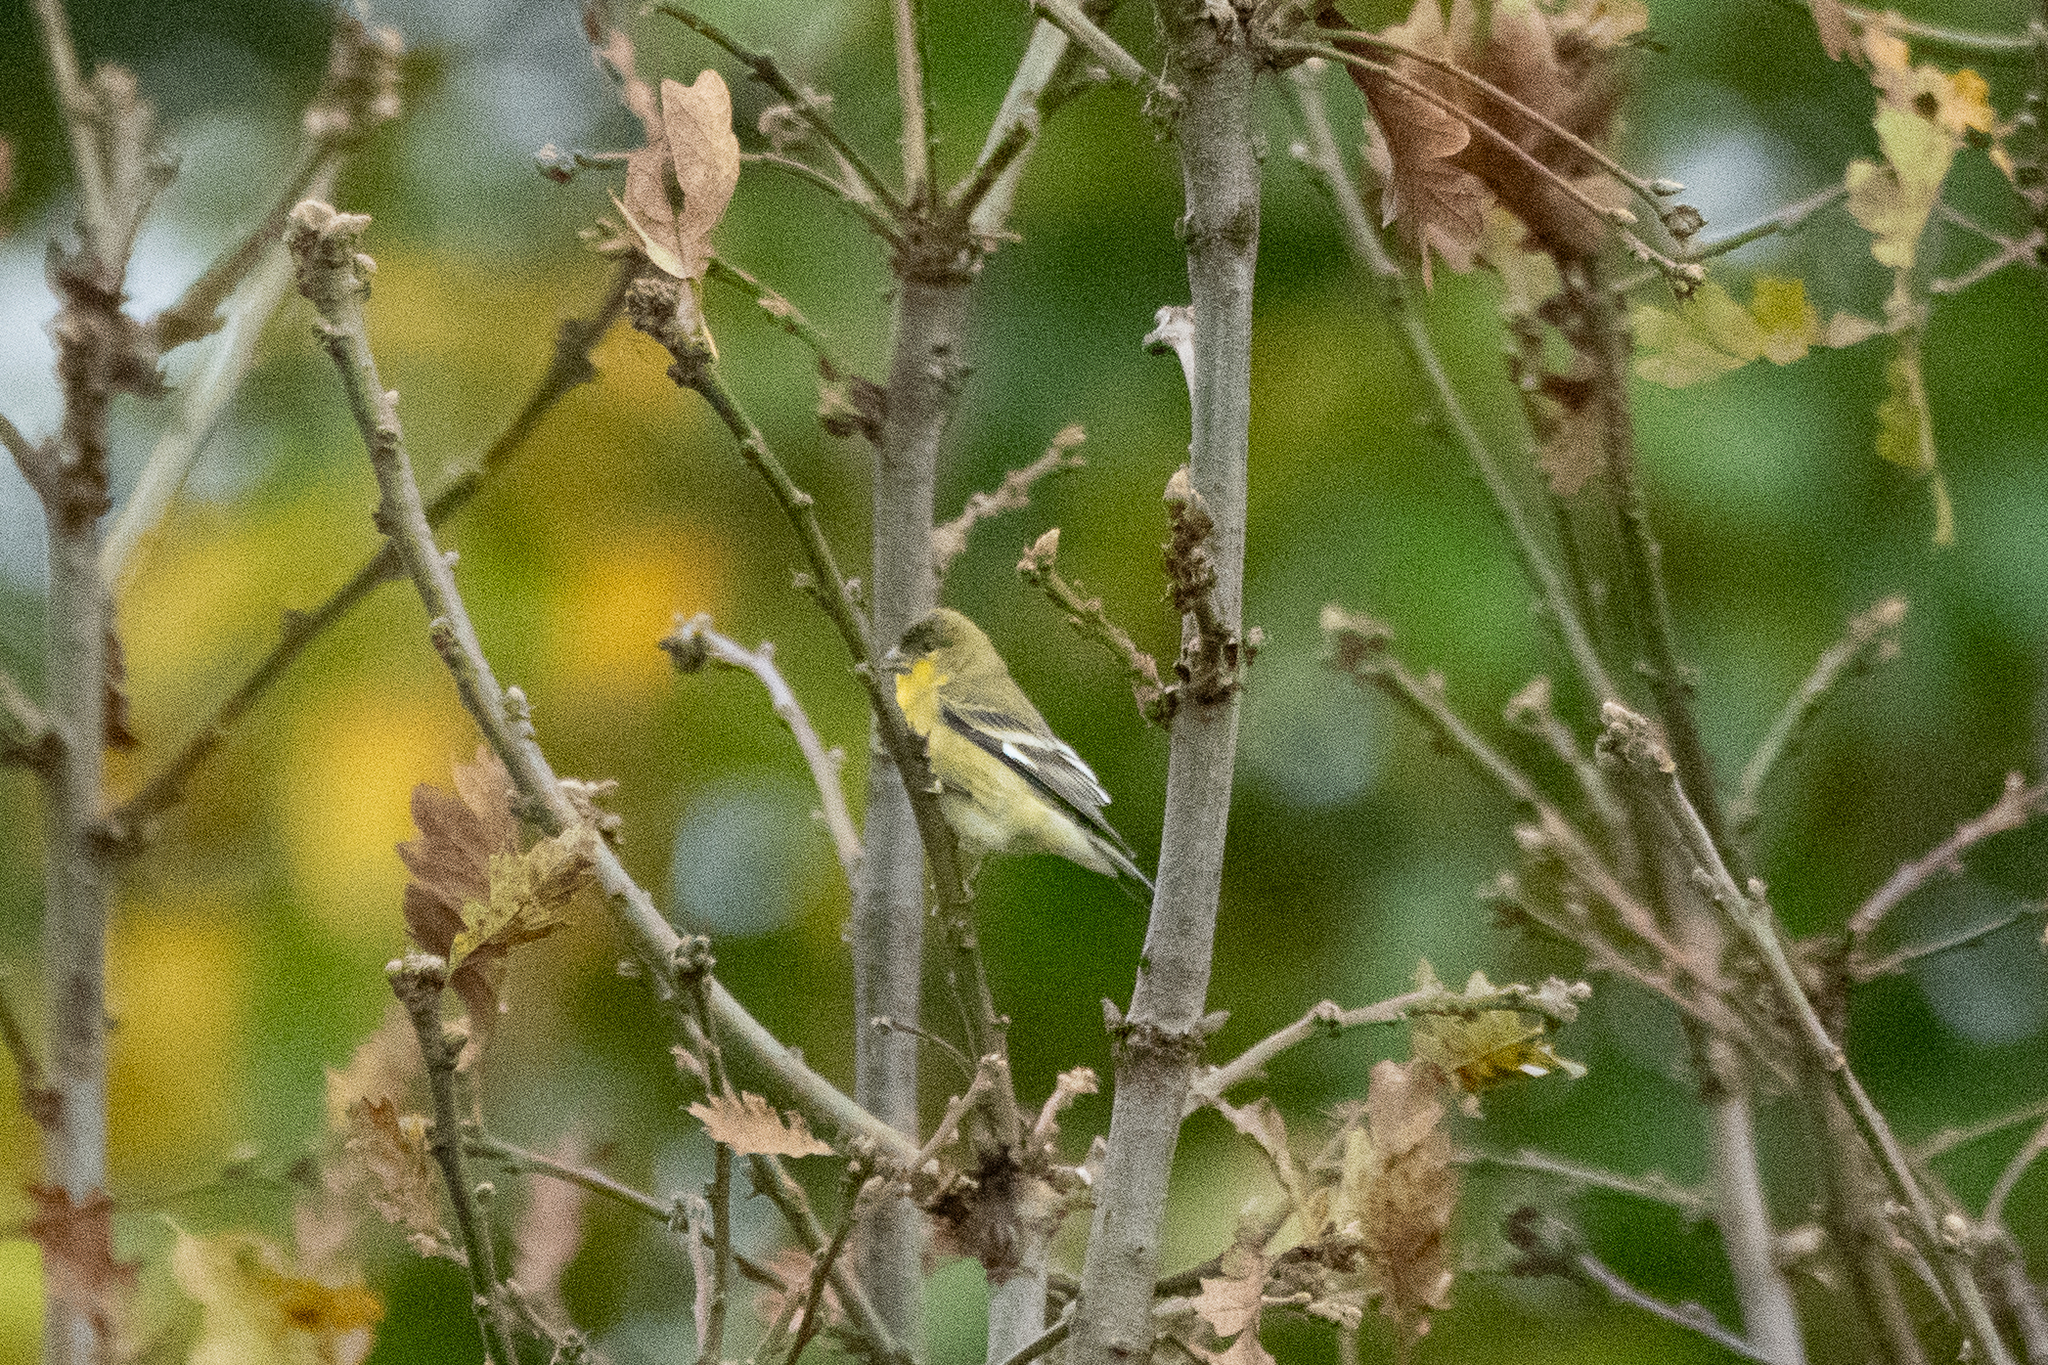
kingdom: Animalia
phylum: Chordata
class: Aves
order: Passeriformes
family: Fringillidae
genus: Spinus
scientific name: Spinus psaltria
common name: Lesser goldfinch
